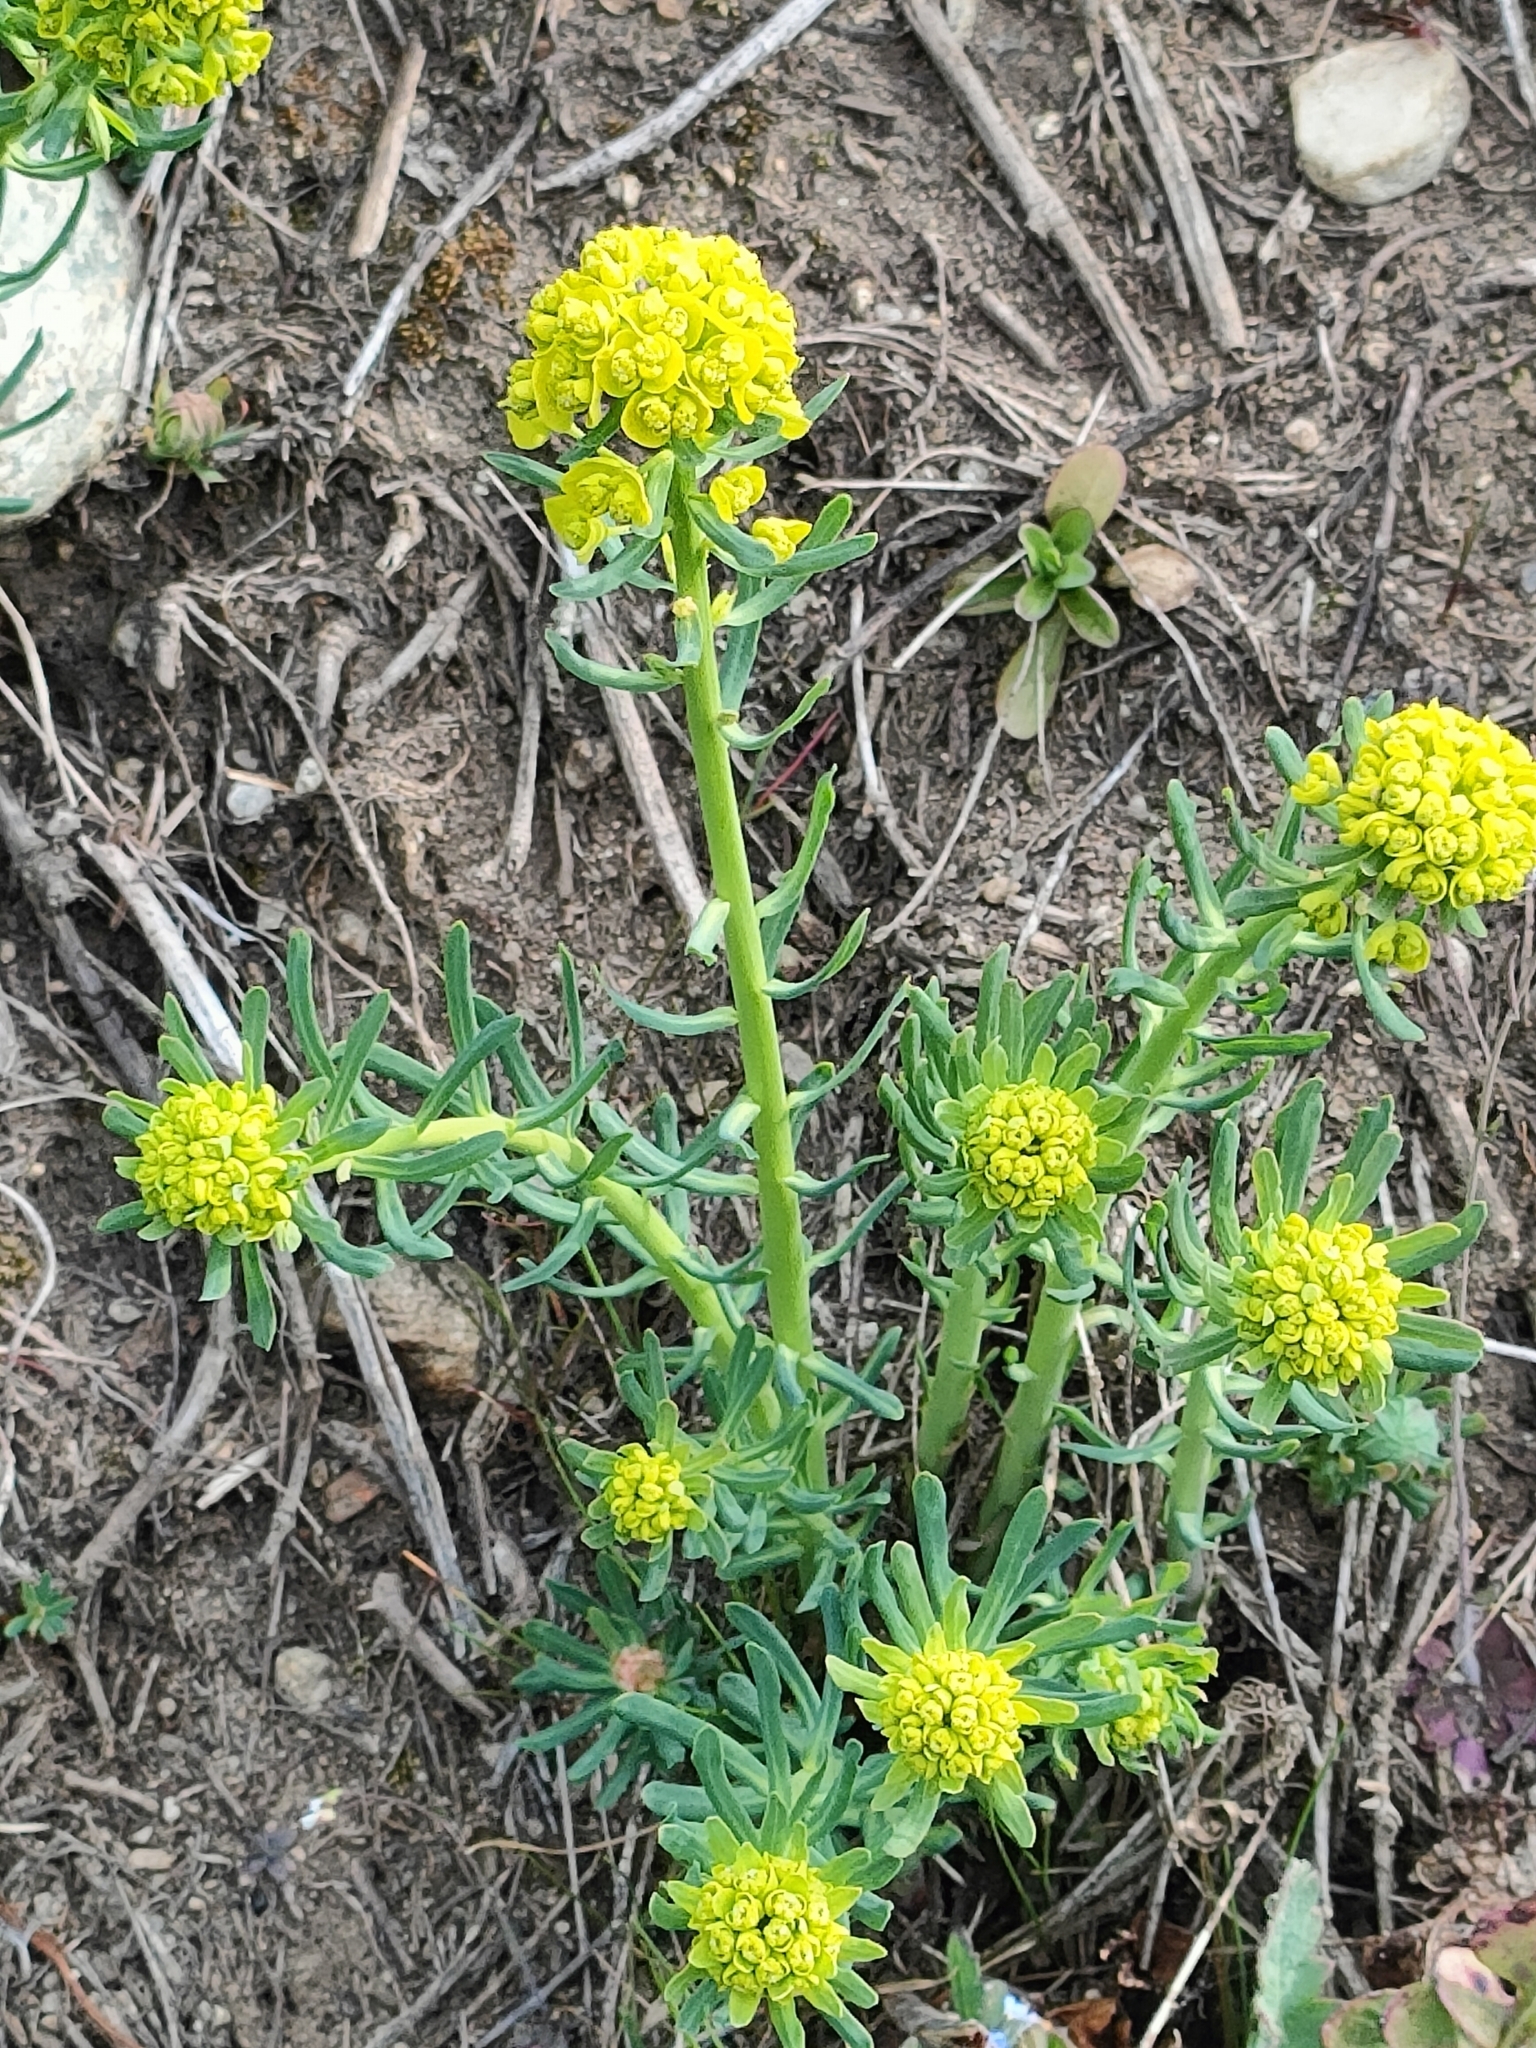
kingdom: Plantae
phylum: Tracheophyta
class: Magnoliopsida
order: Malpighiales
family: Euphorbiaceae
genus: Euphorbia
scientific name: Euphorbia cyparissias
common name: Cypress spurge
